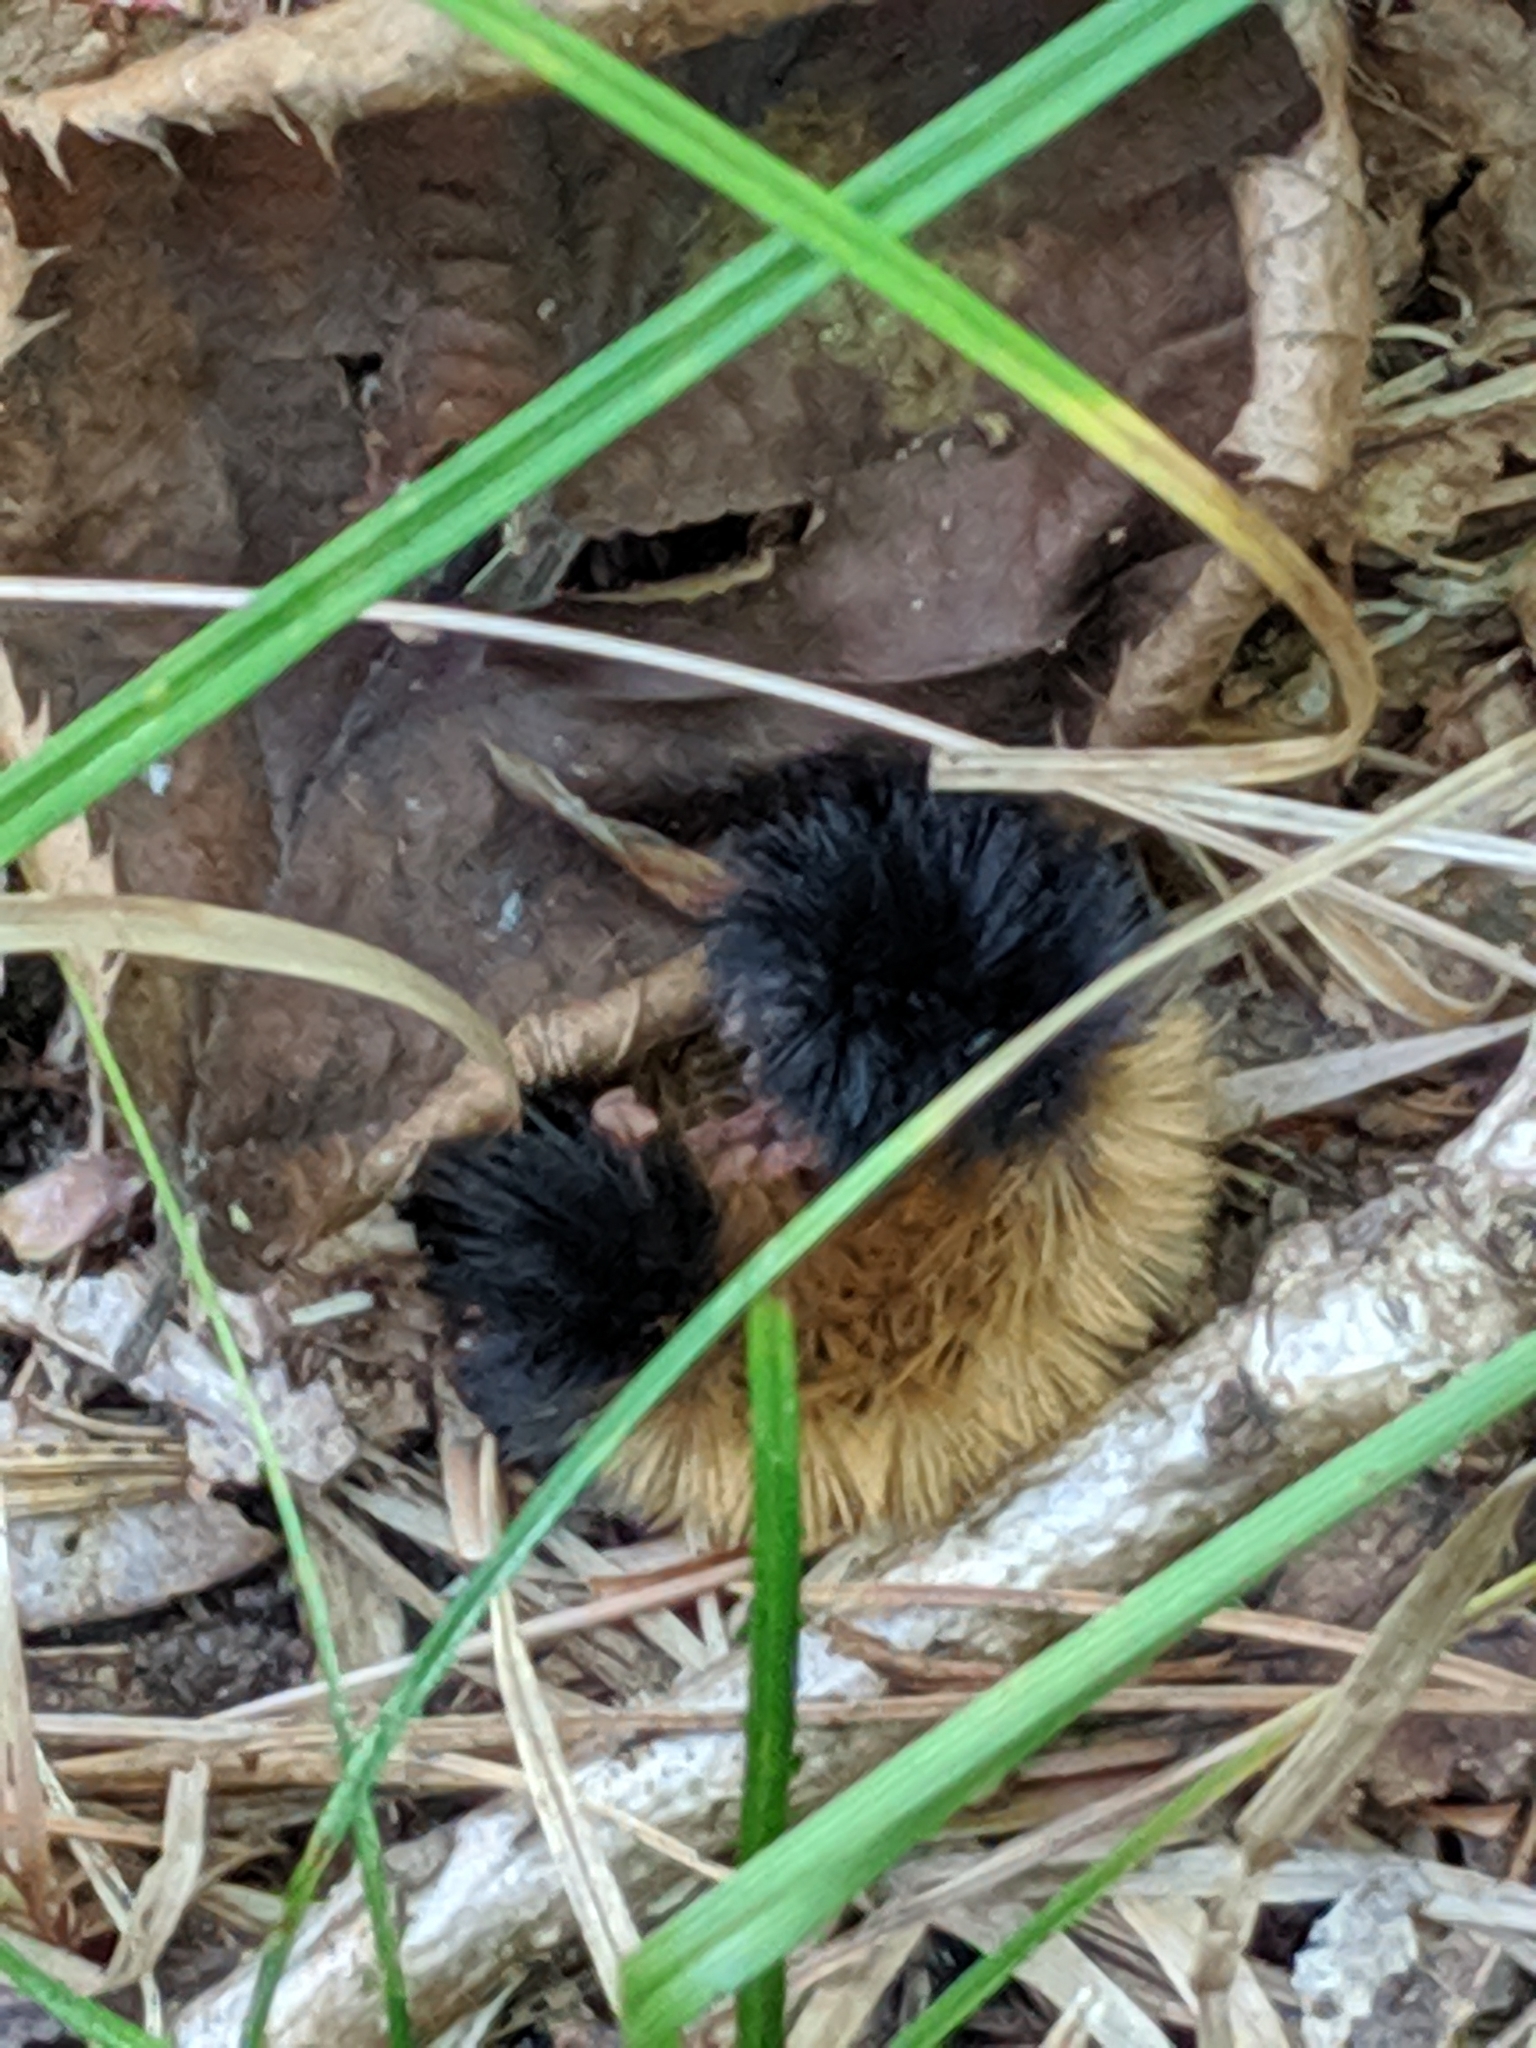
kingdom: Animalia
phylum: Arthropoda
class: Insecta
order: Lepidoptera
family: Erebidae
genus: Pyrrharctia
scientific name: Pyrrharctia isabella
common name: Isabella tiger moth
